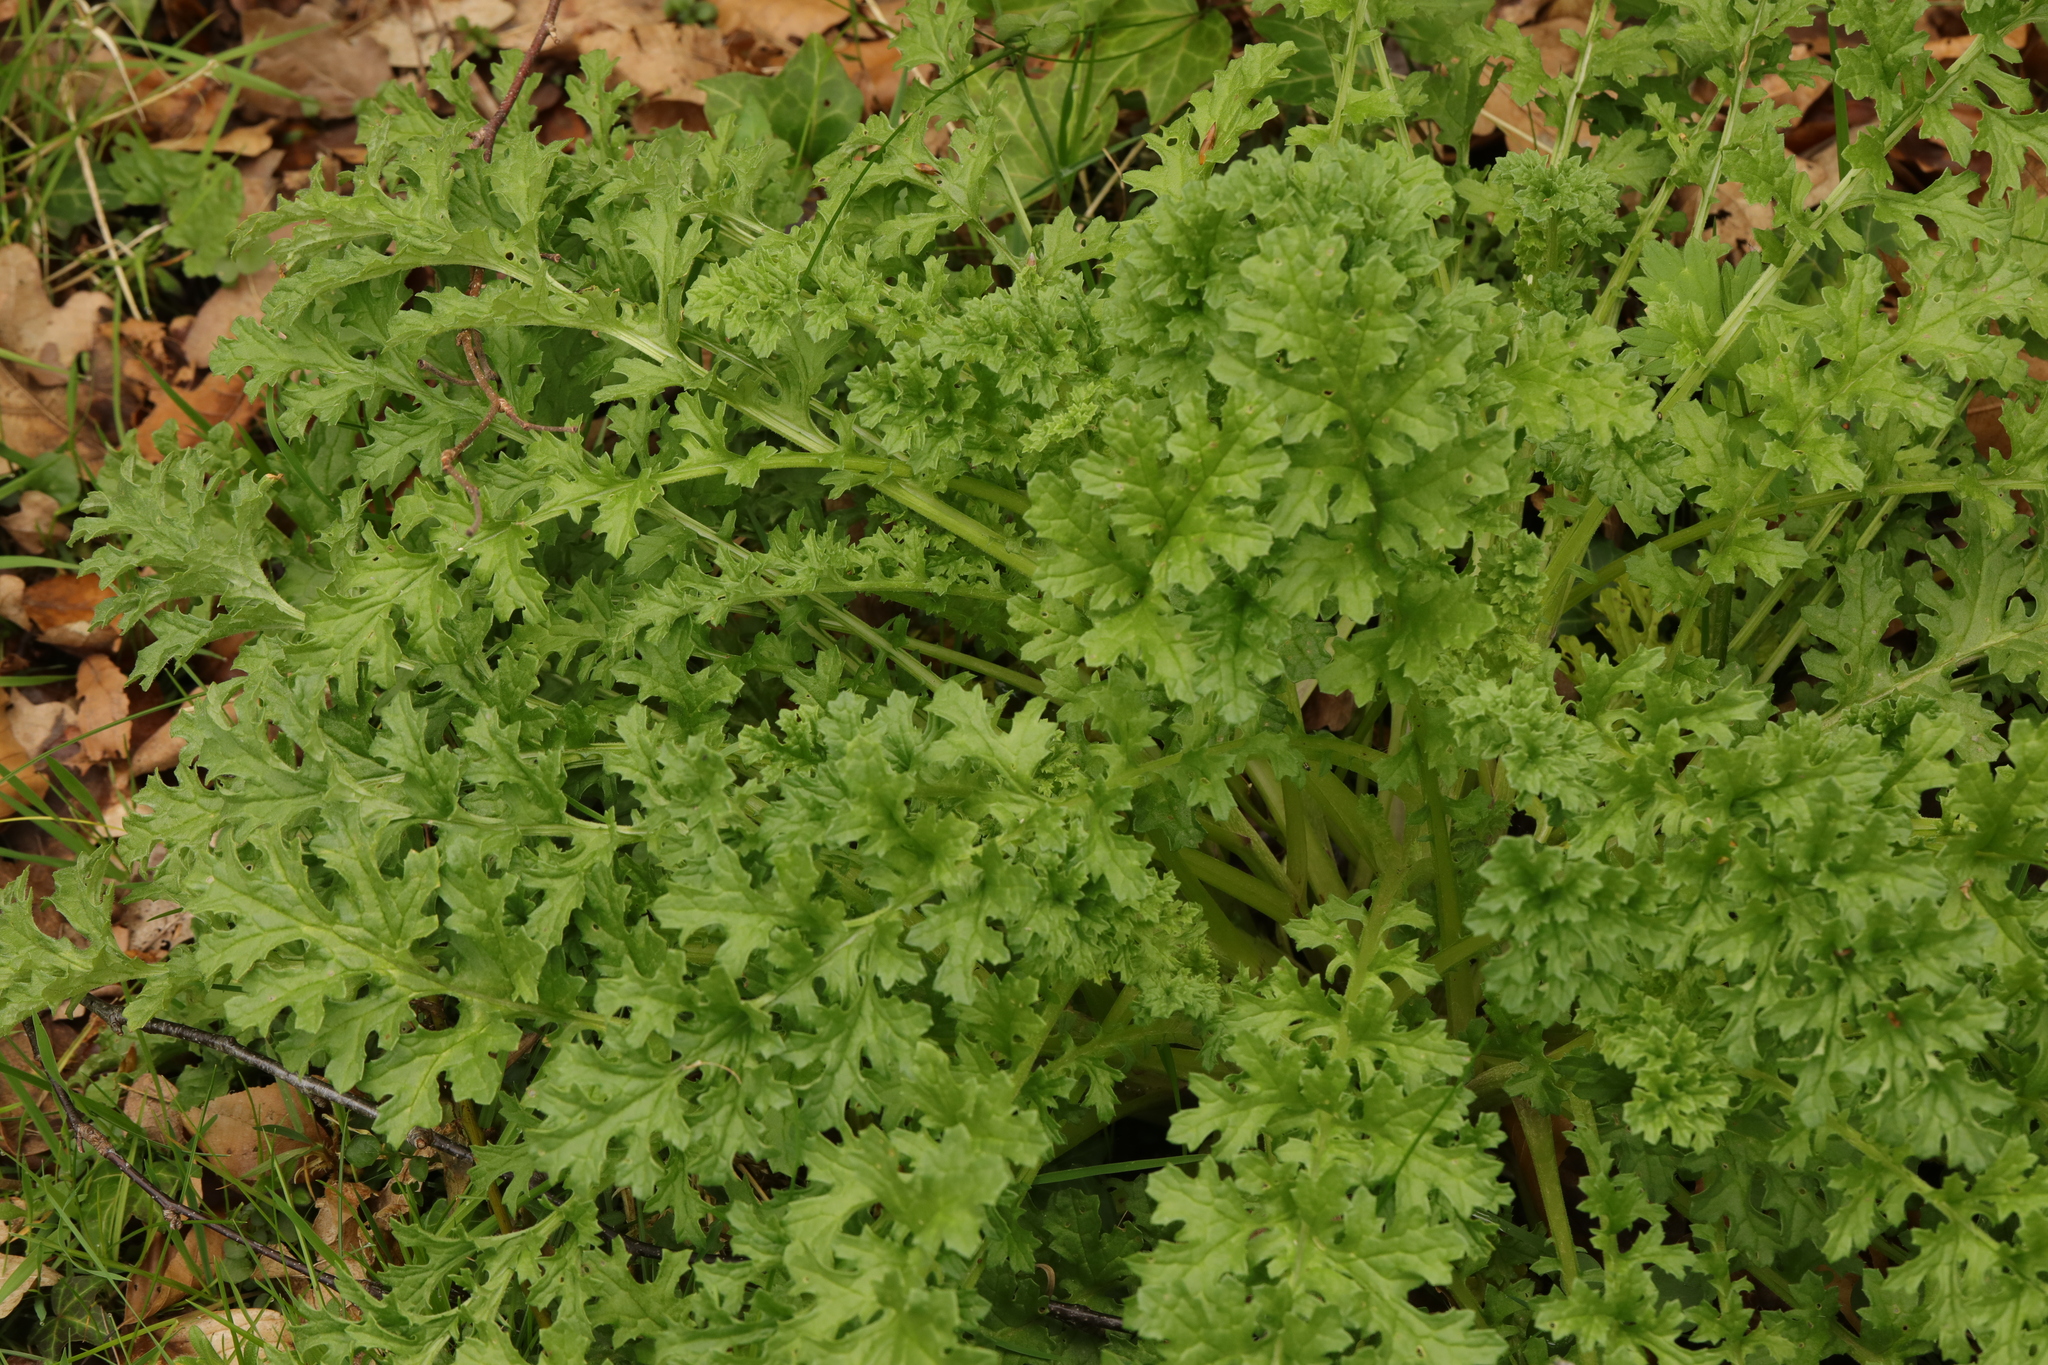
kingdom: Plantae
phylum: Tracheophyta
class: Magnoliopsida
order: Asterales
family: Asteraceae
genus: Jacobaea
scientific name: Jacobaea vulgaris
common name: Stinking willie
